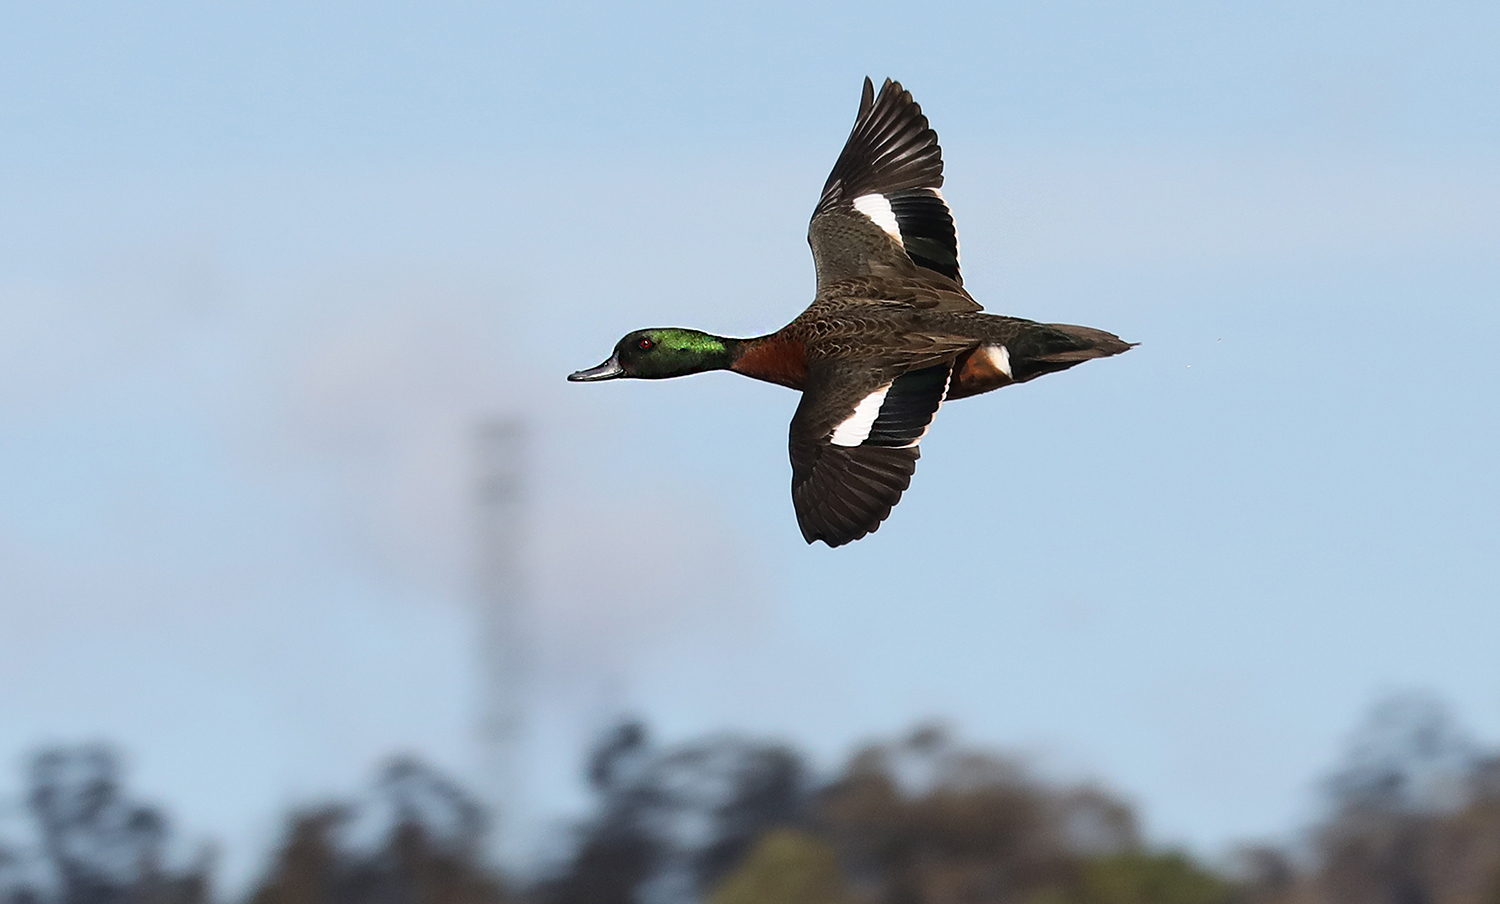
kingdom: Animalia
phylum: Chordata
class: Aves
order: Anseriformes
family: Anatidae
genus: Anas
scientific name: Anas castanea
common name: Chestnut teal
